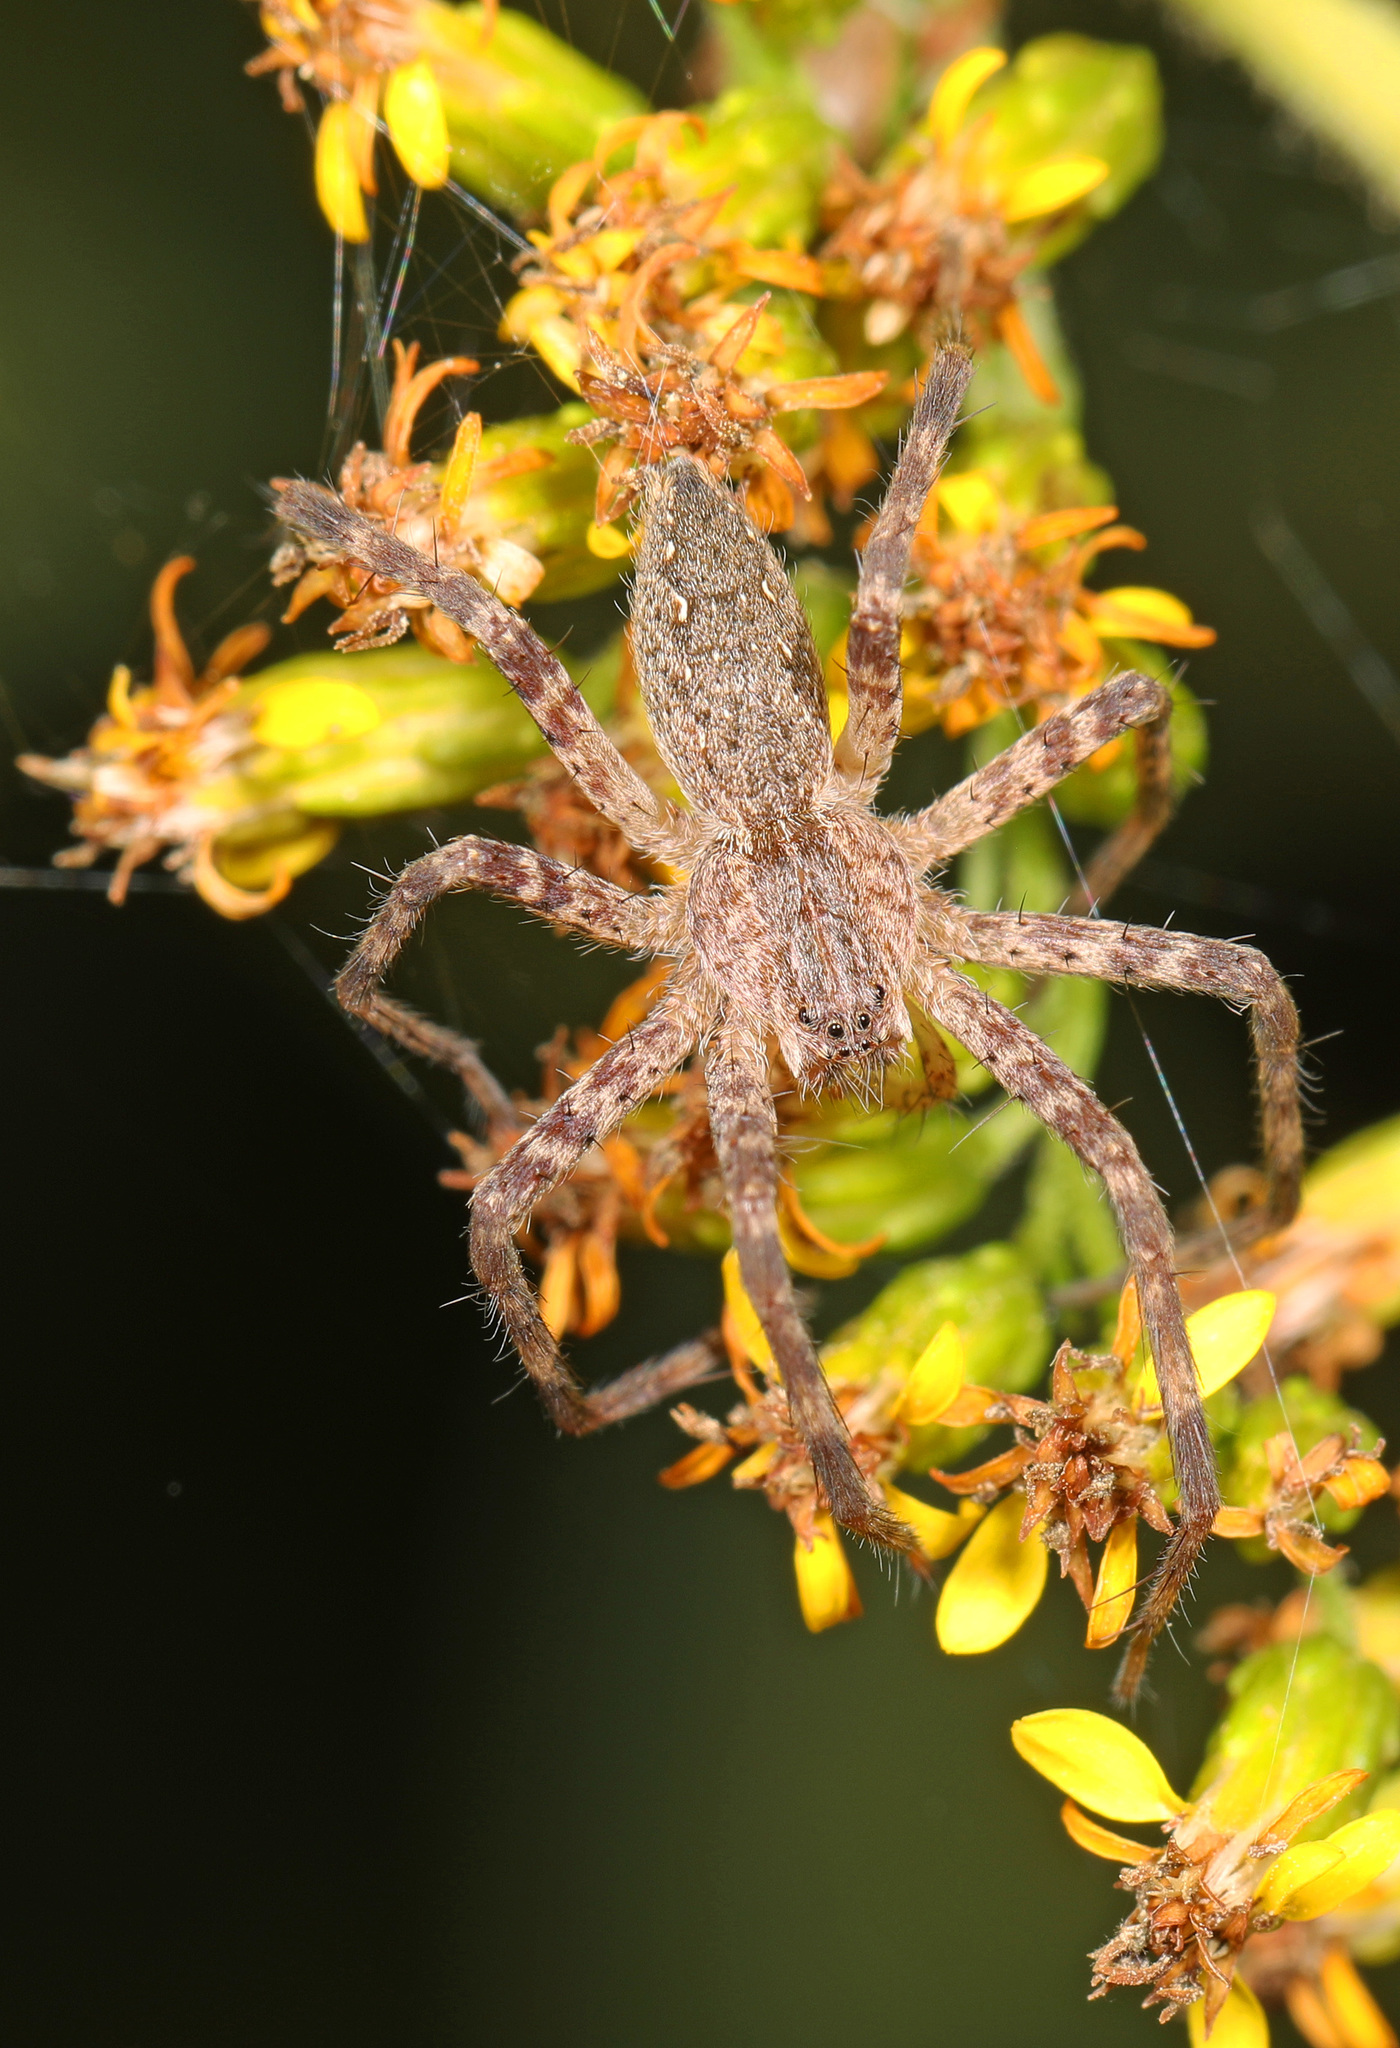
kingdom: Animalia
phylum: Arthropoda
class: Arachnida
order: Araneae
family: Pisauridae
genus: Pisaurina
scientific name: Pisaurina mira
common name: American nursery web spider
